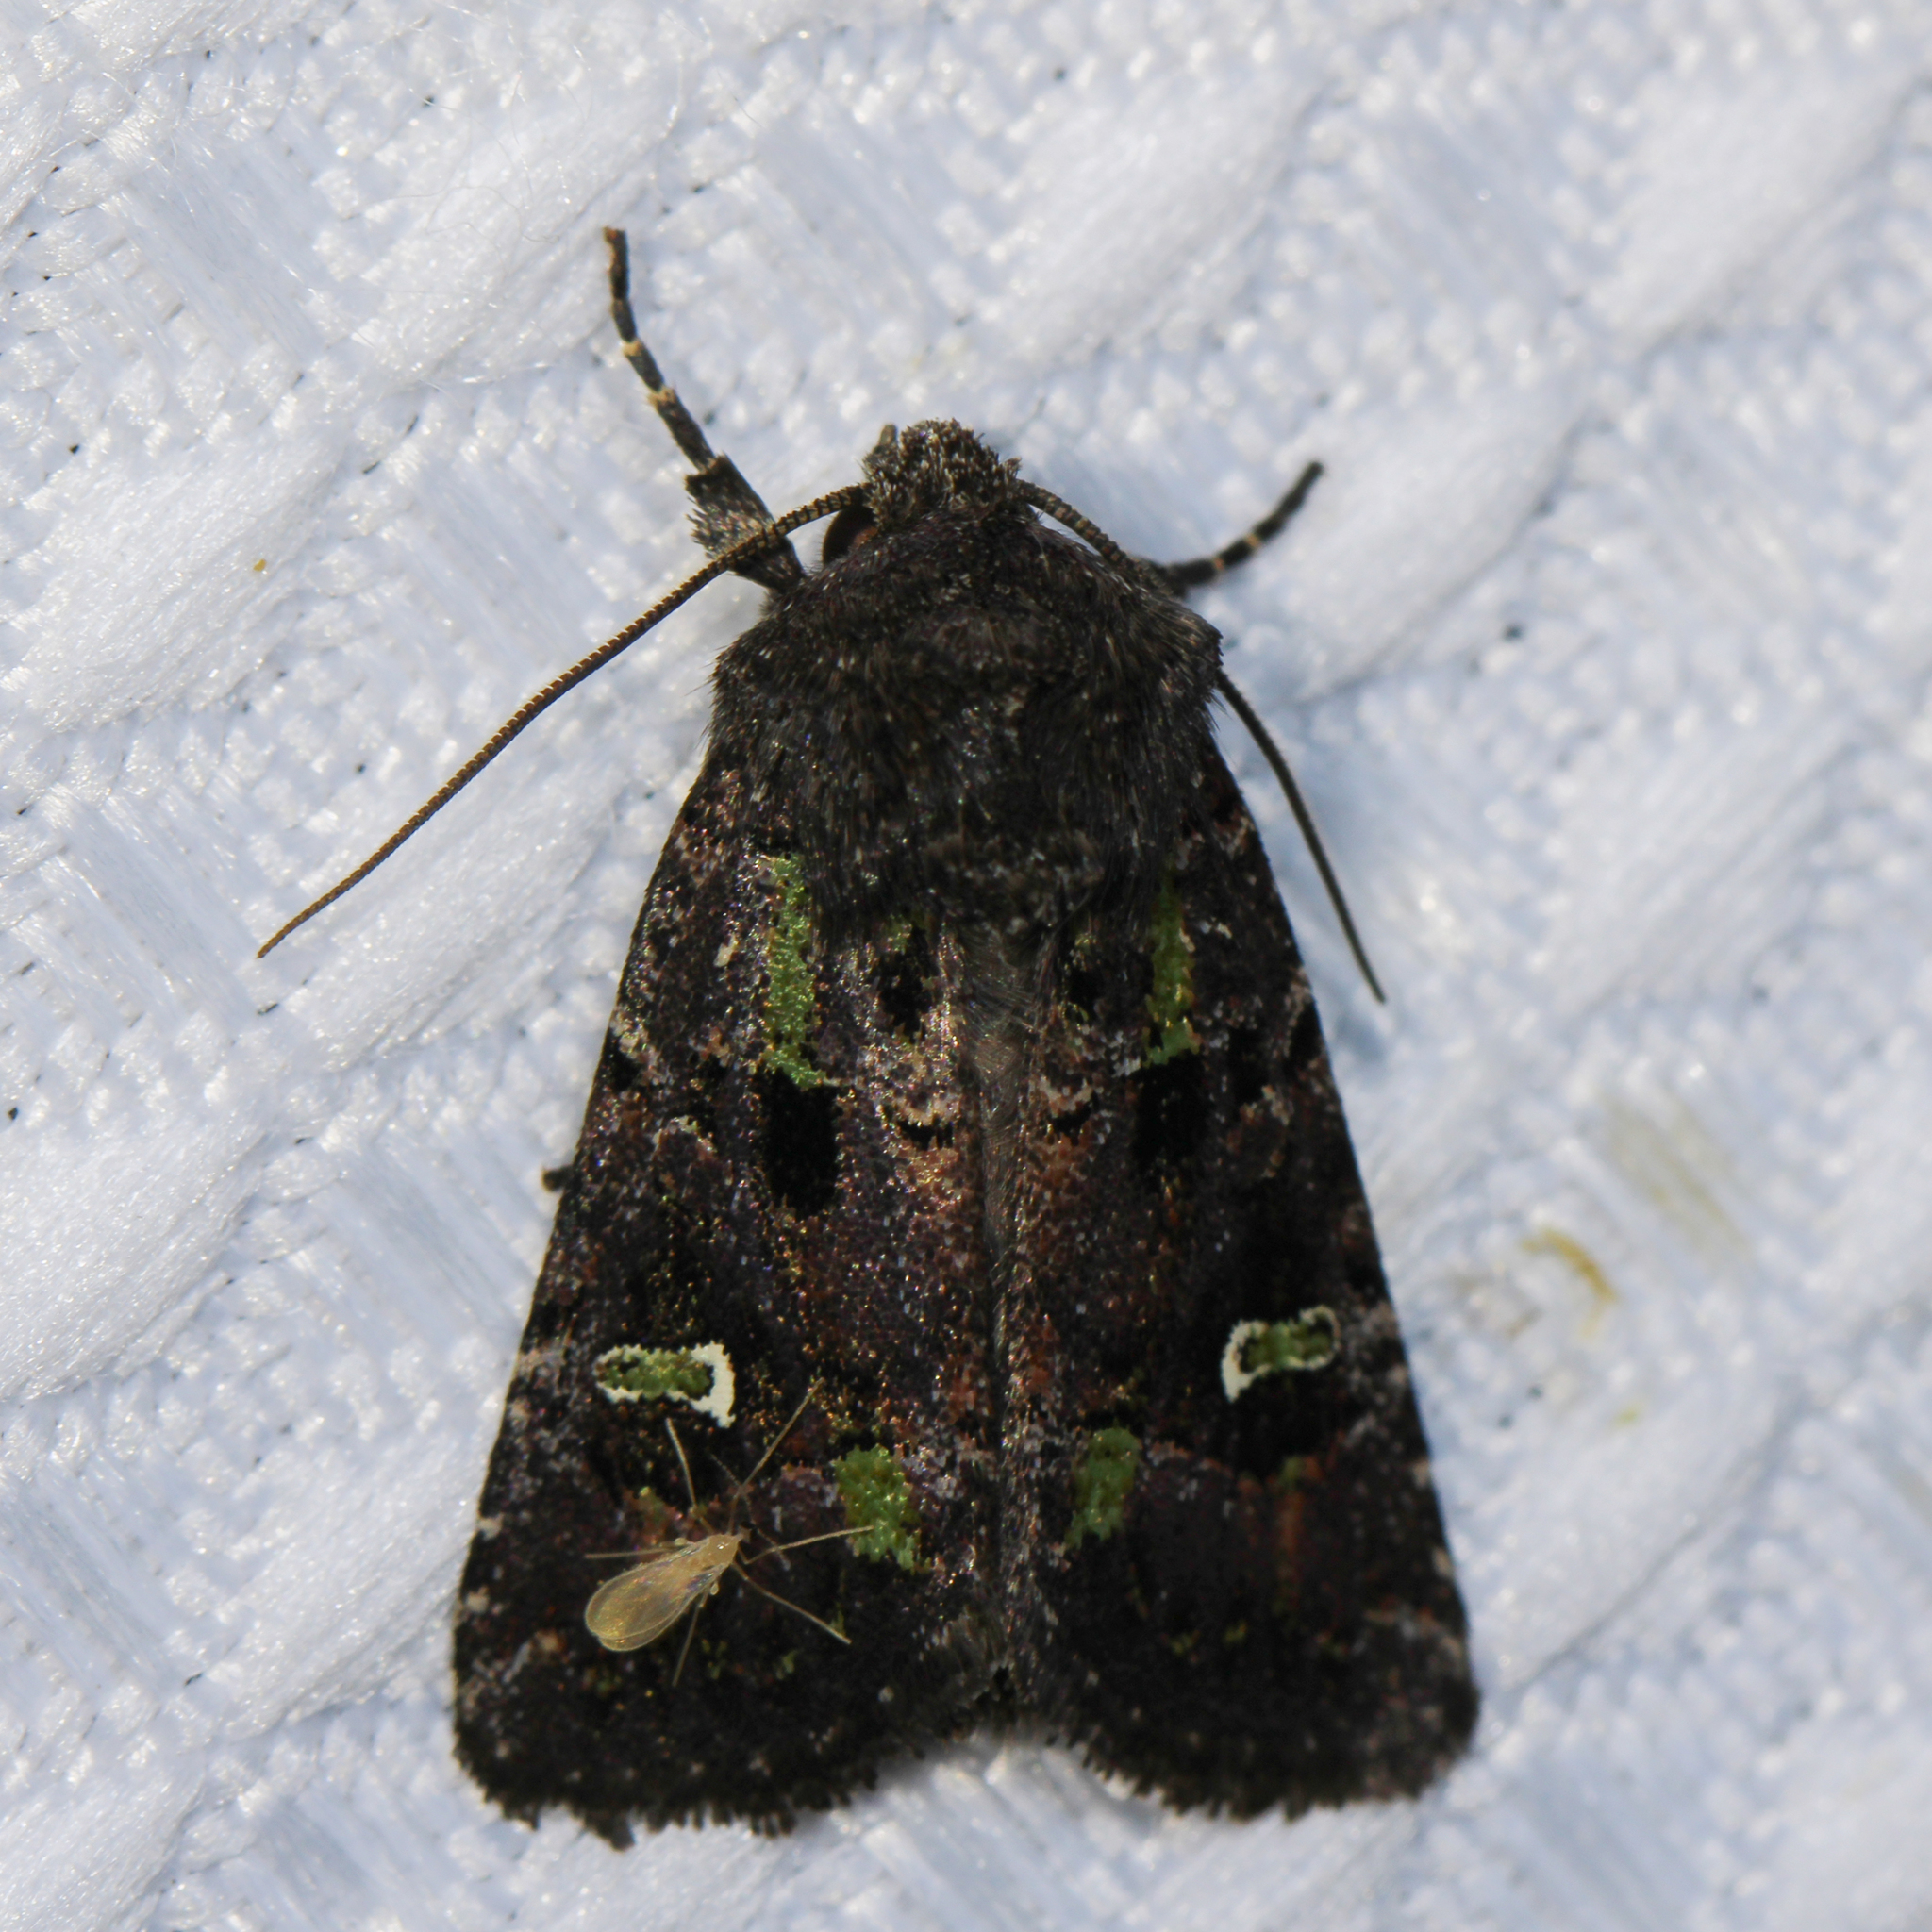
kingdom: Animalia
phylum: Arthropoda
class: Insecta
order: Lepidoptera
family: Noctuidae
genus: Lacinipolia
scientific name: Lacinipolia renigera
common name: Kidney-spotted minor
